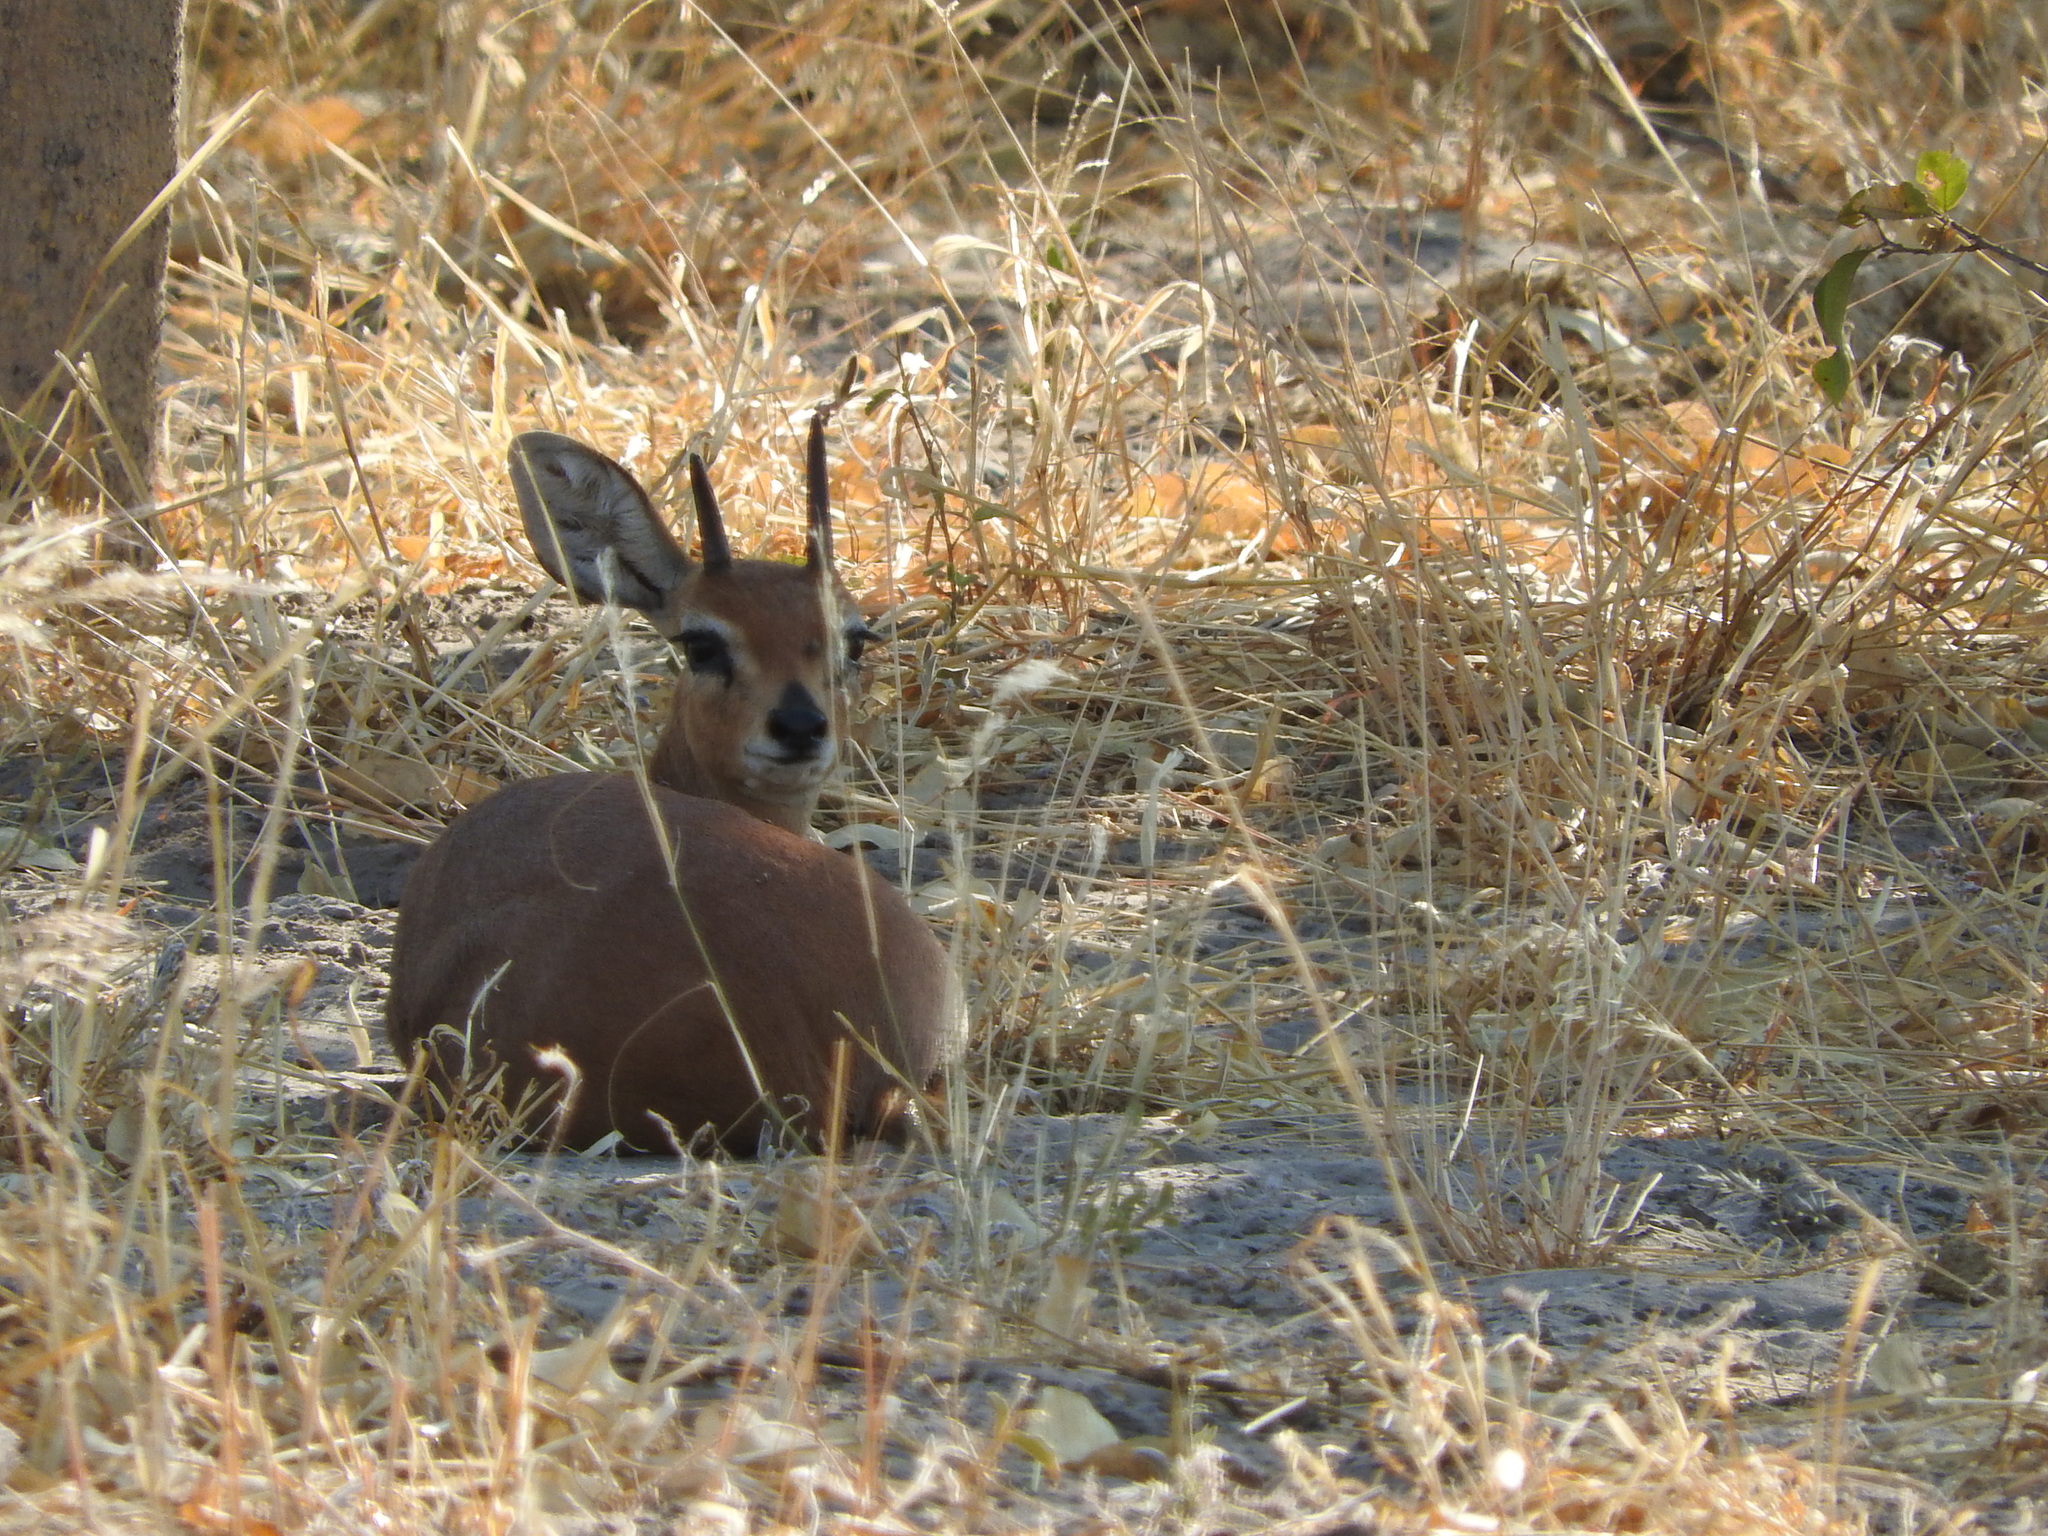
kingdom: Animalia
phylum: Chordata
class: Mammalia
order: Artiodactyla
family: Bovidae
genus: Raphicerus
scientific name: Raphicerus campestris
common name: Steenbok
